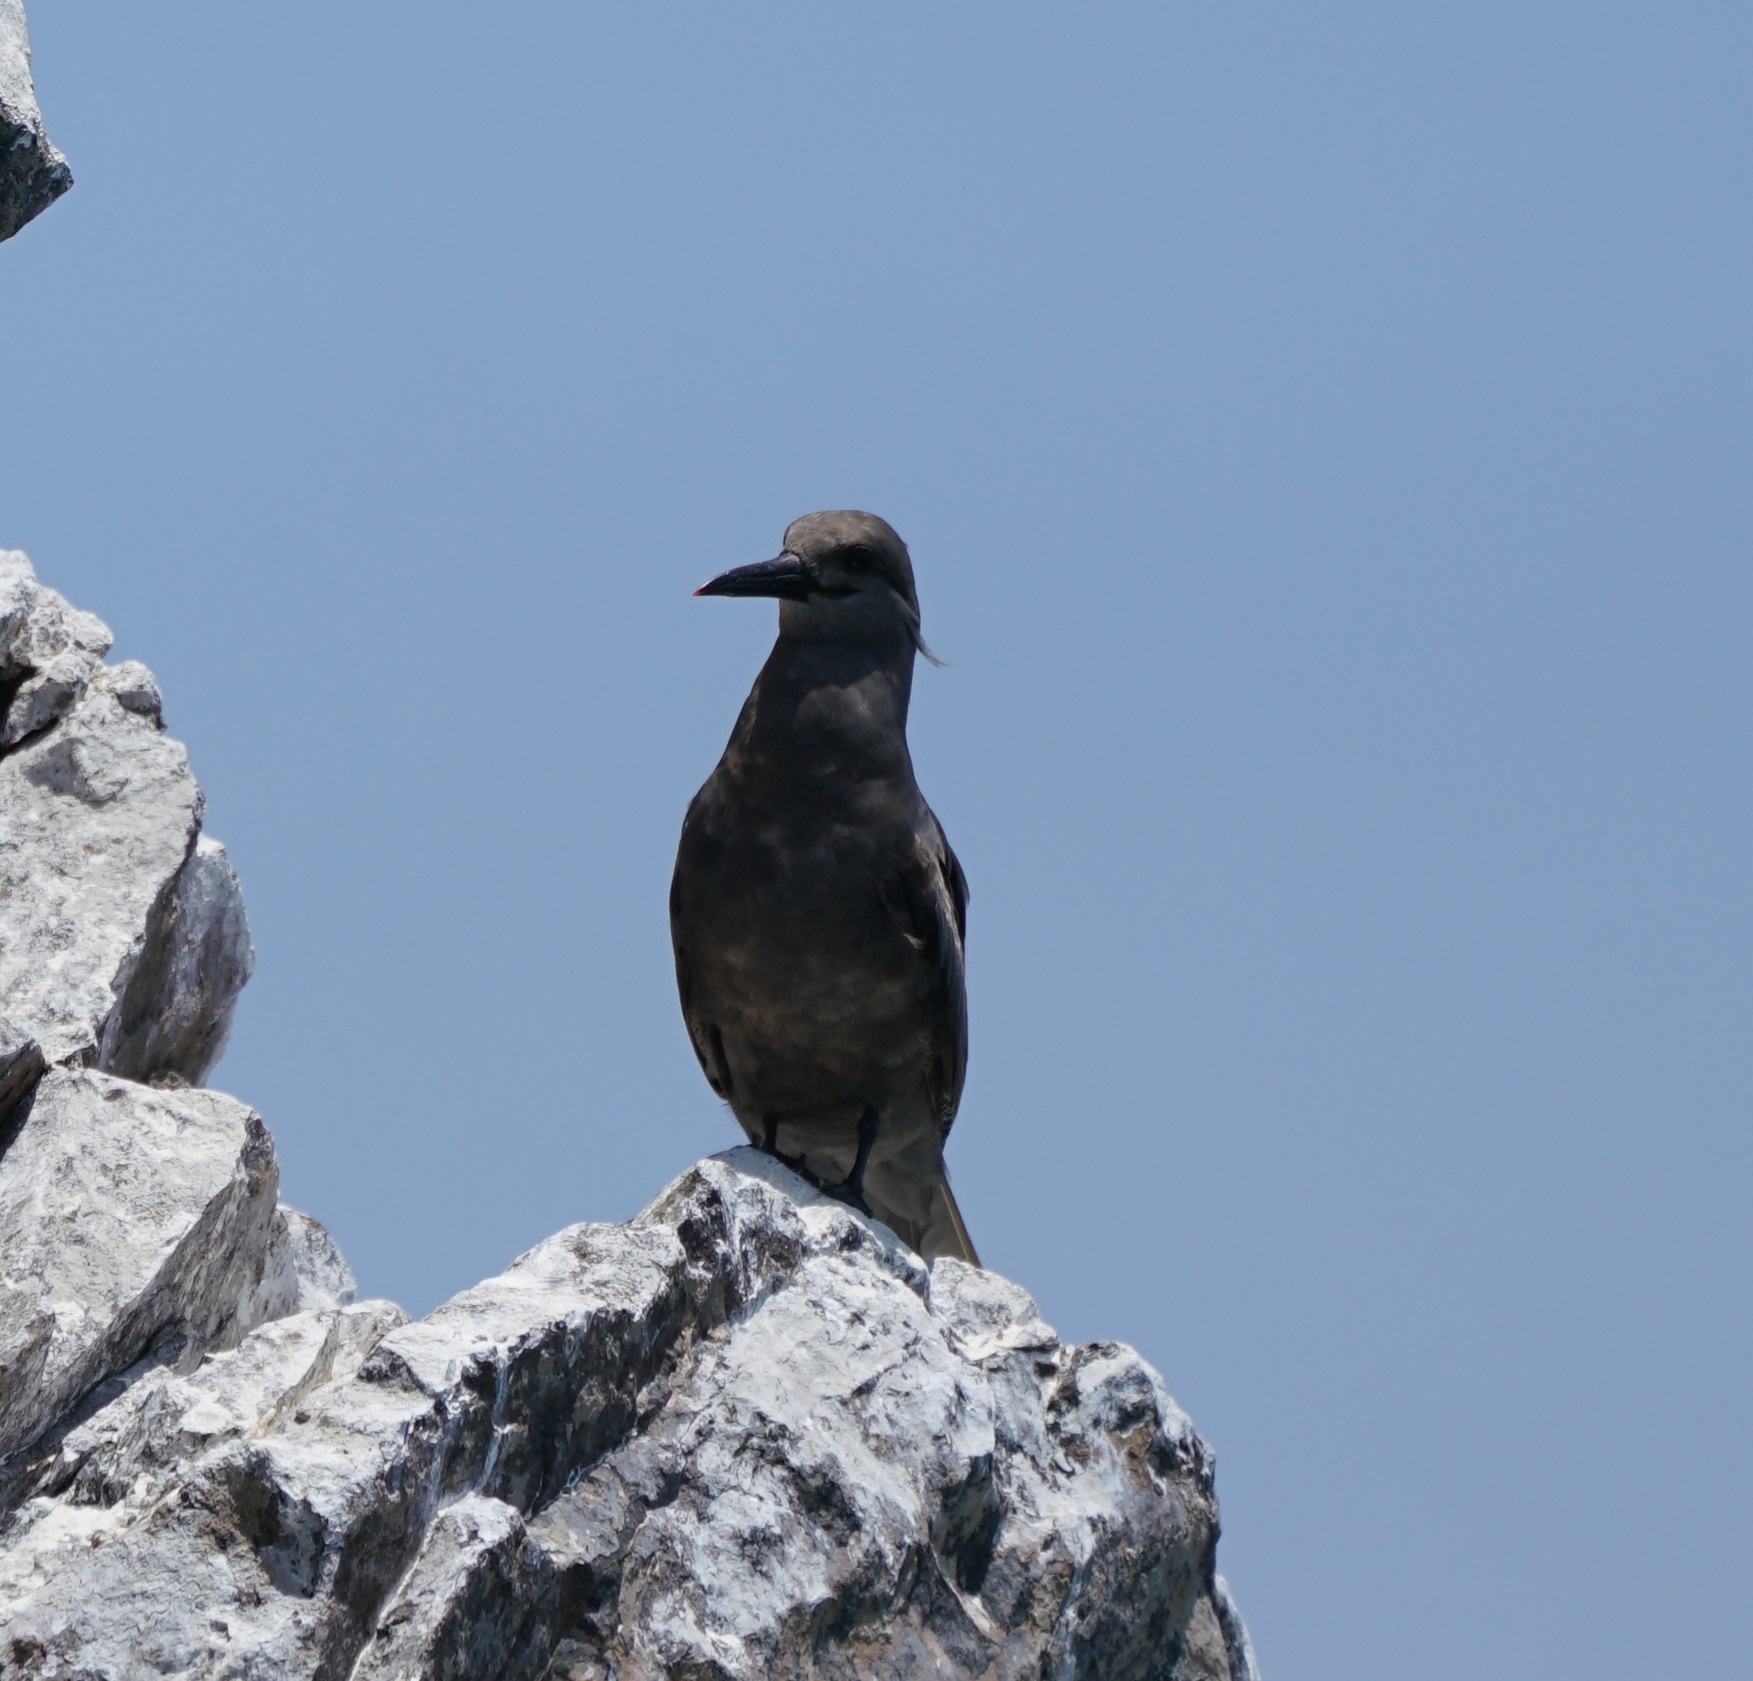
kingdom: Animalia
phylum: Chordata
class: Aves
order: Charadriiformes
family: Laridae
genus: Larosterna
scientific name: Larosterna inca
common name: Inca tern
